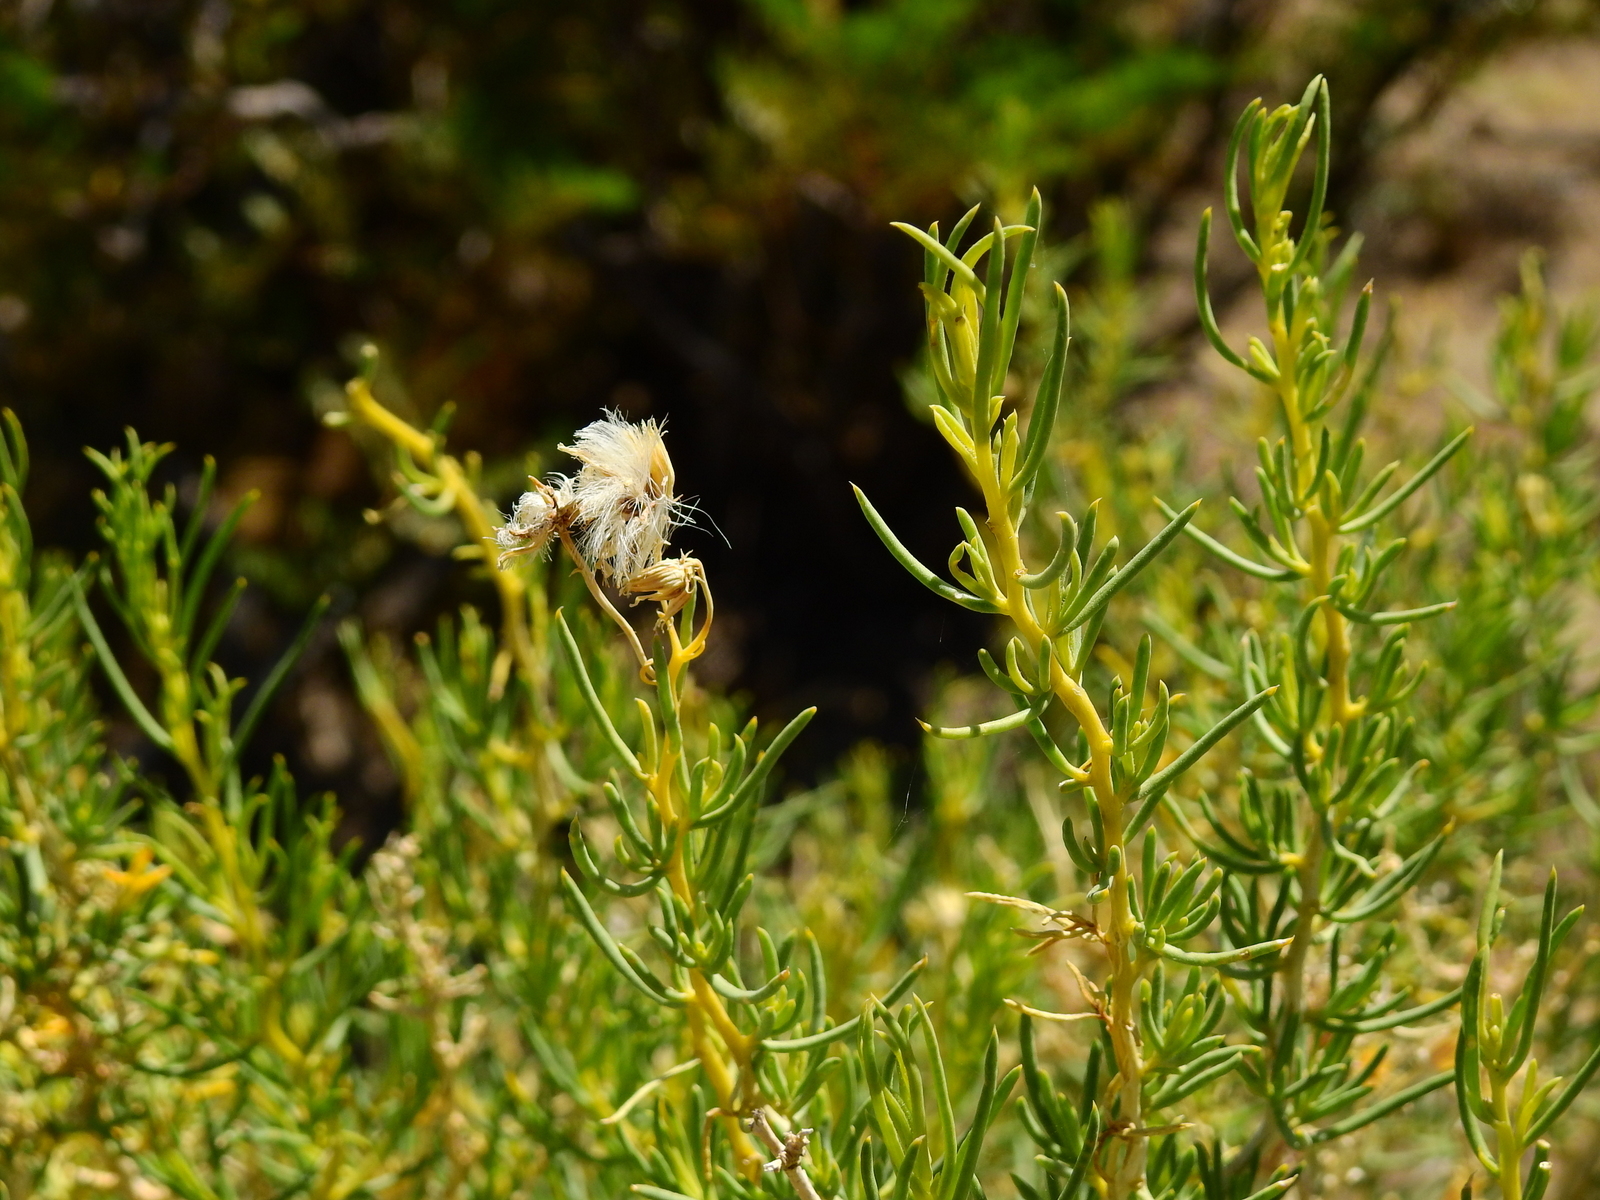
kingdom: Plantae
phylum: Tracheophyta
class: Magnoliopsida
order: Asterales
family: Asteraceae
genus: Senecio
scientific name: Senecio subulatus
